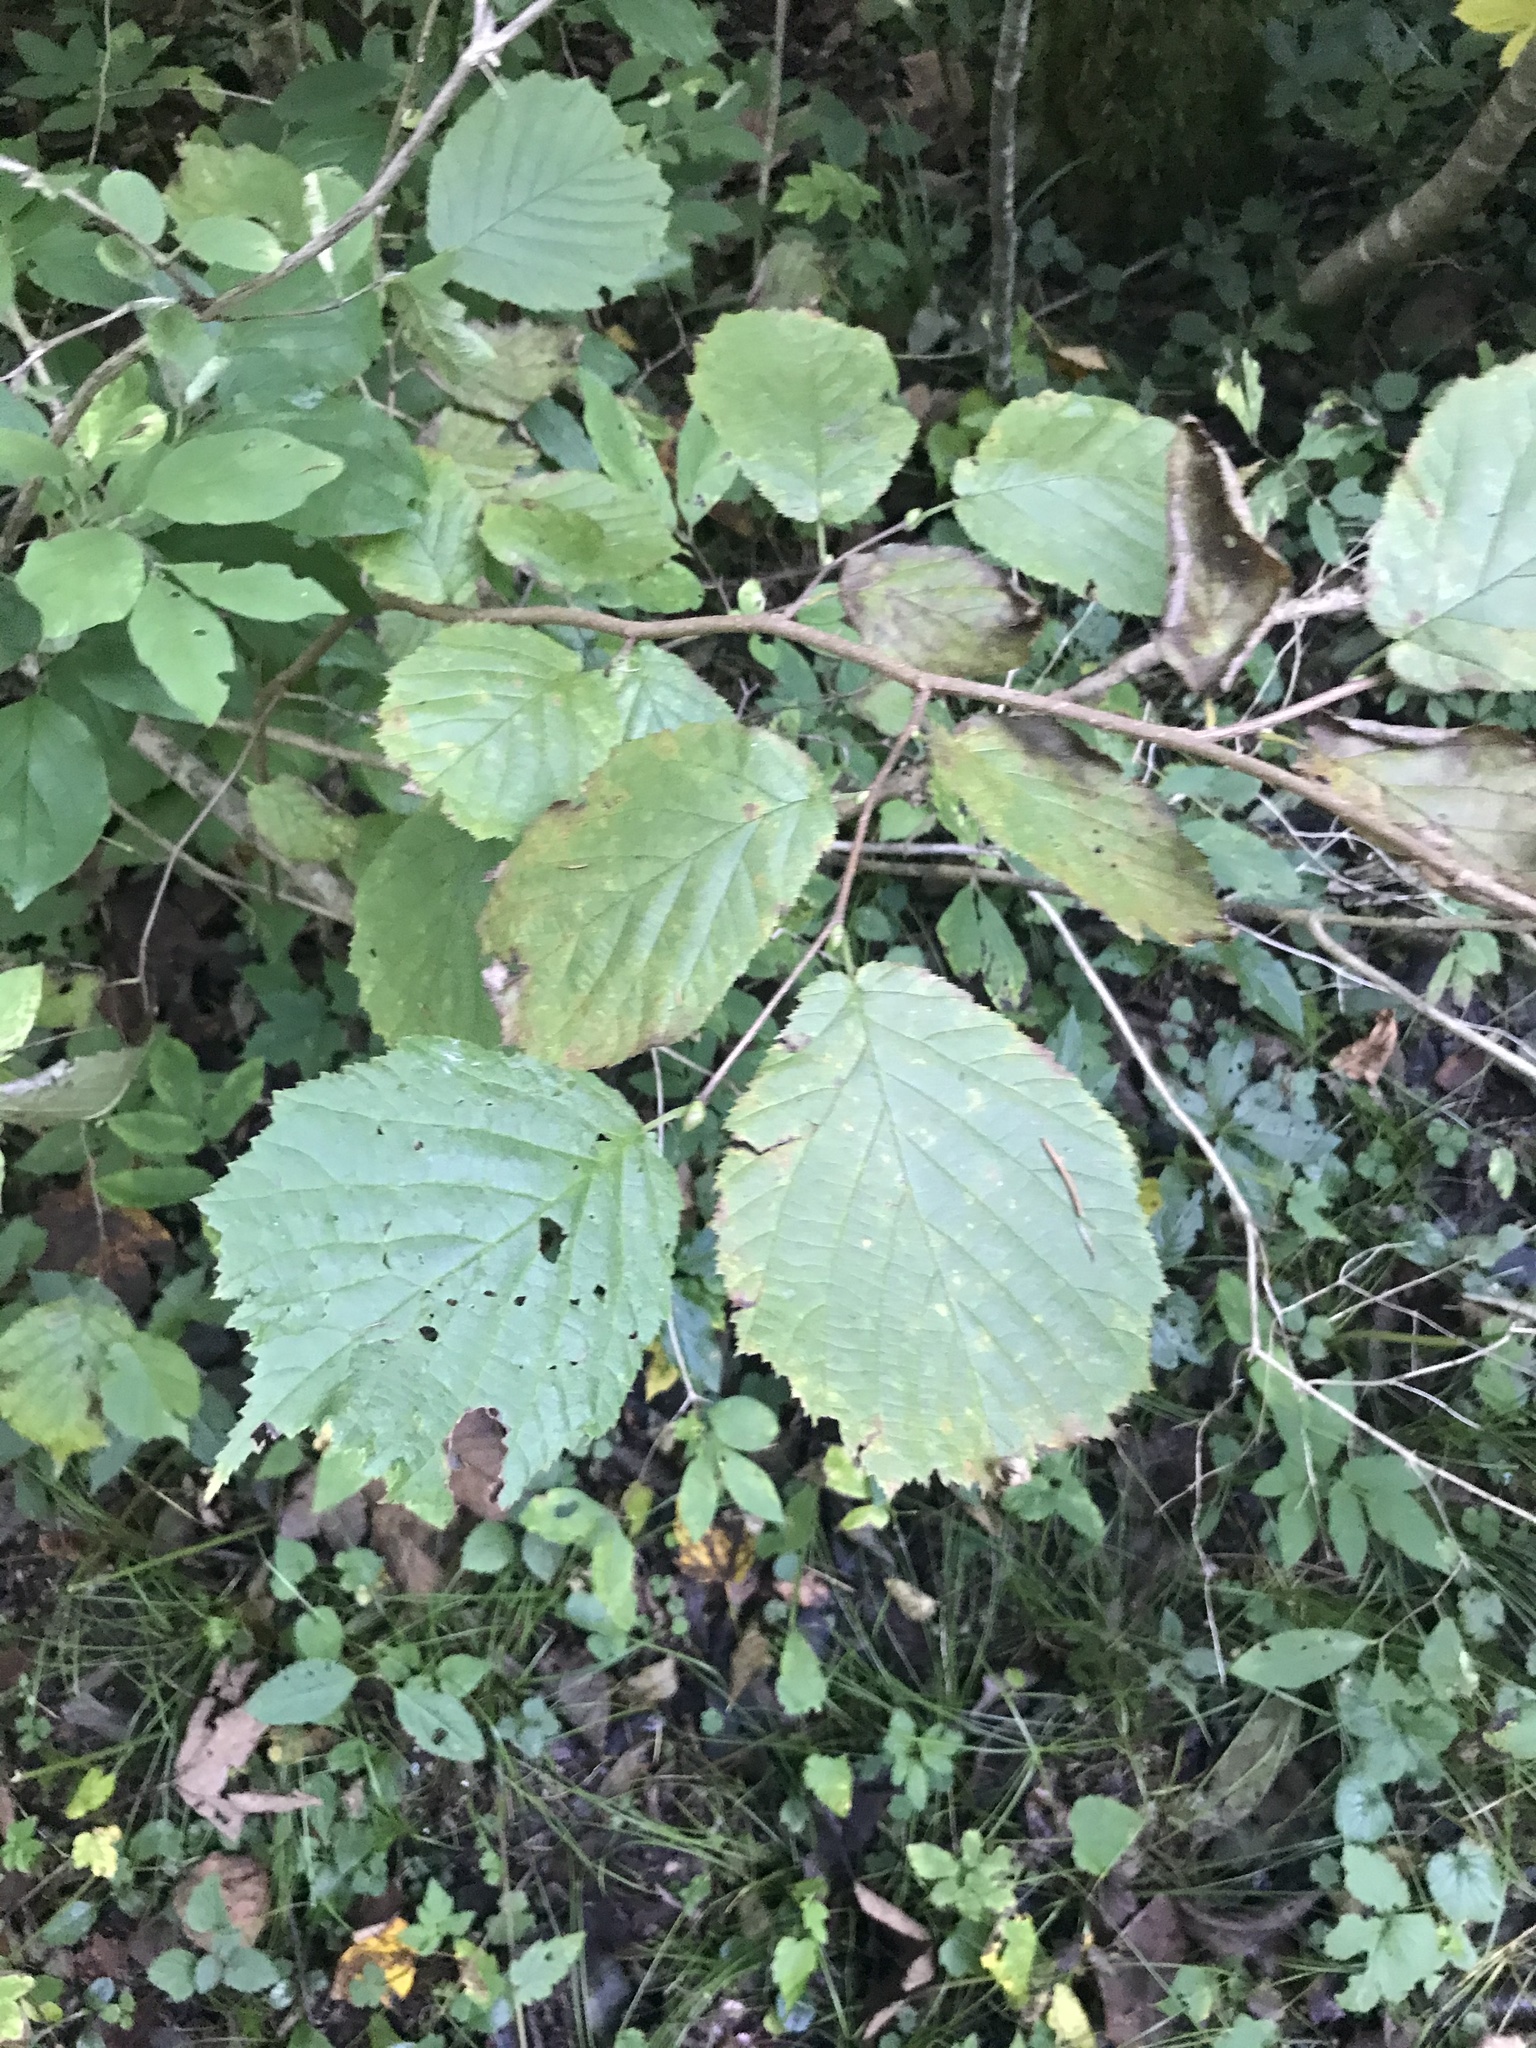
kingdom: Plantae
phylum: Tracheophyta
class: Magnoliopsida
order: Fagales
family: Betulaceae
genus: Corylus
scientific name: Corylus avellana
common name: European hazel
